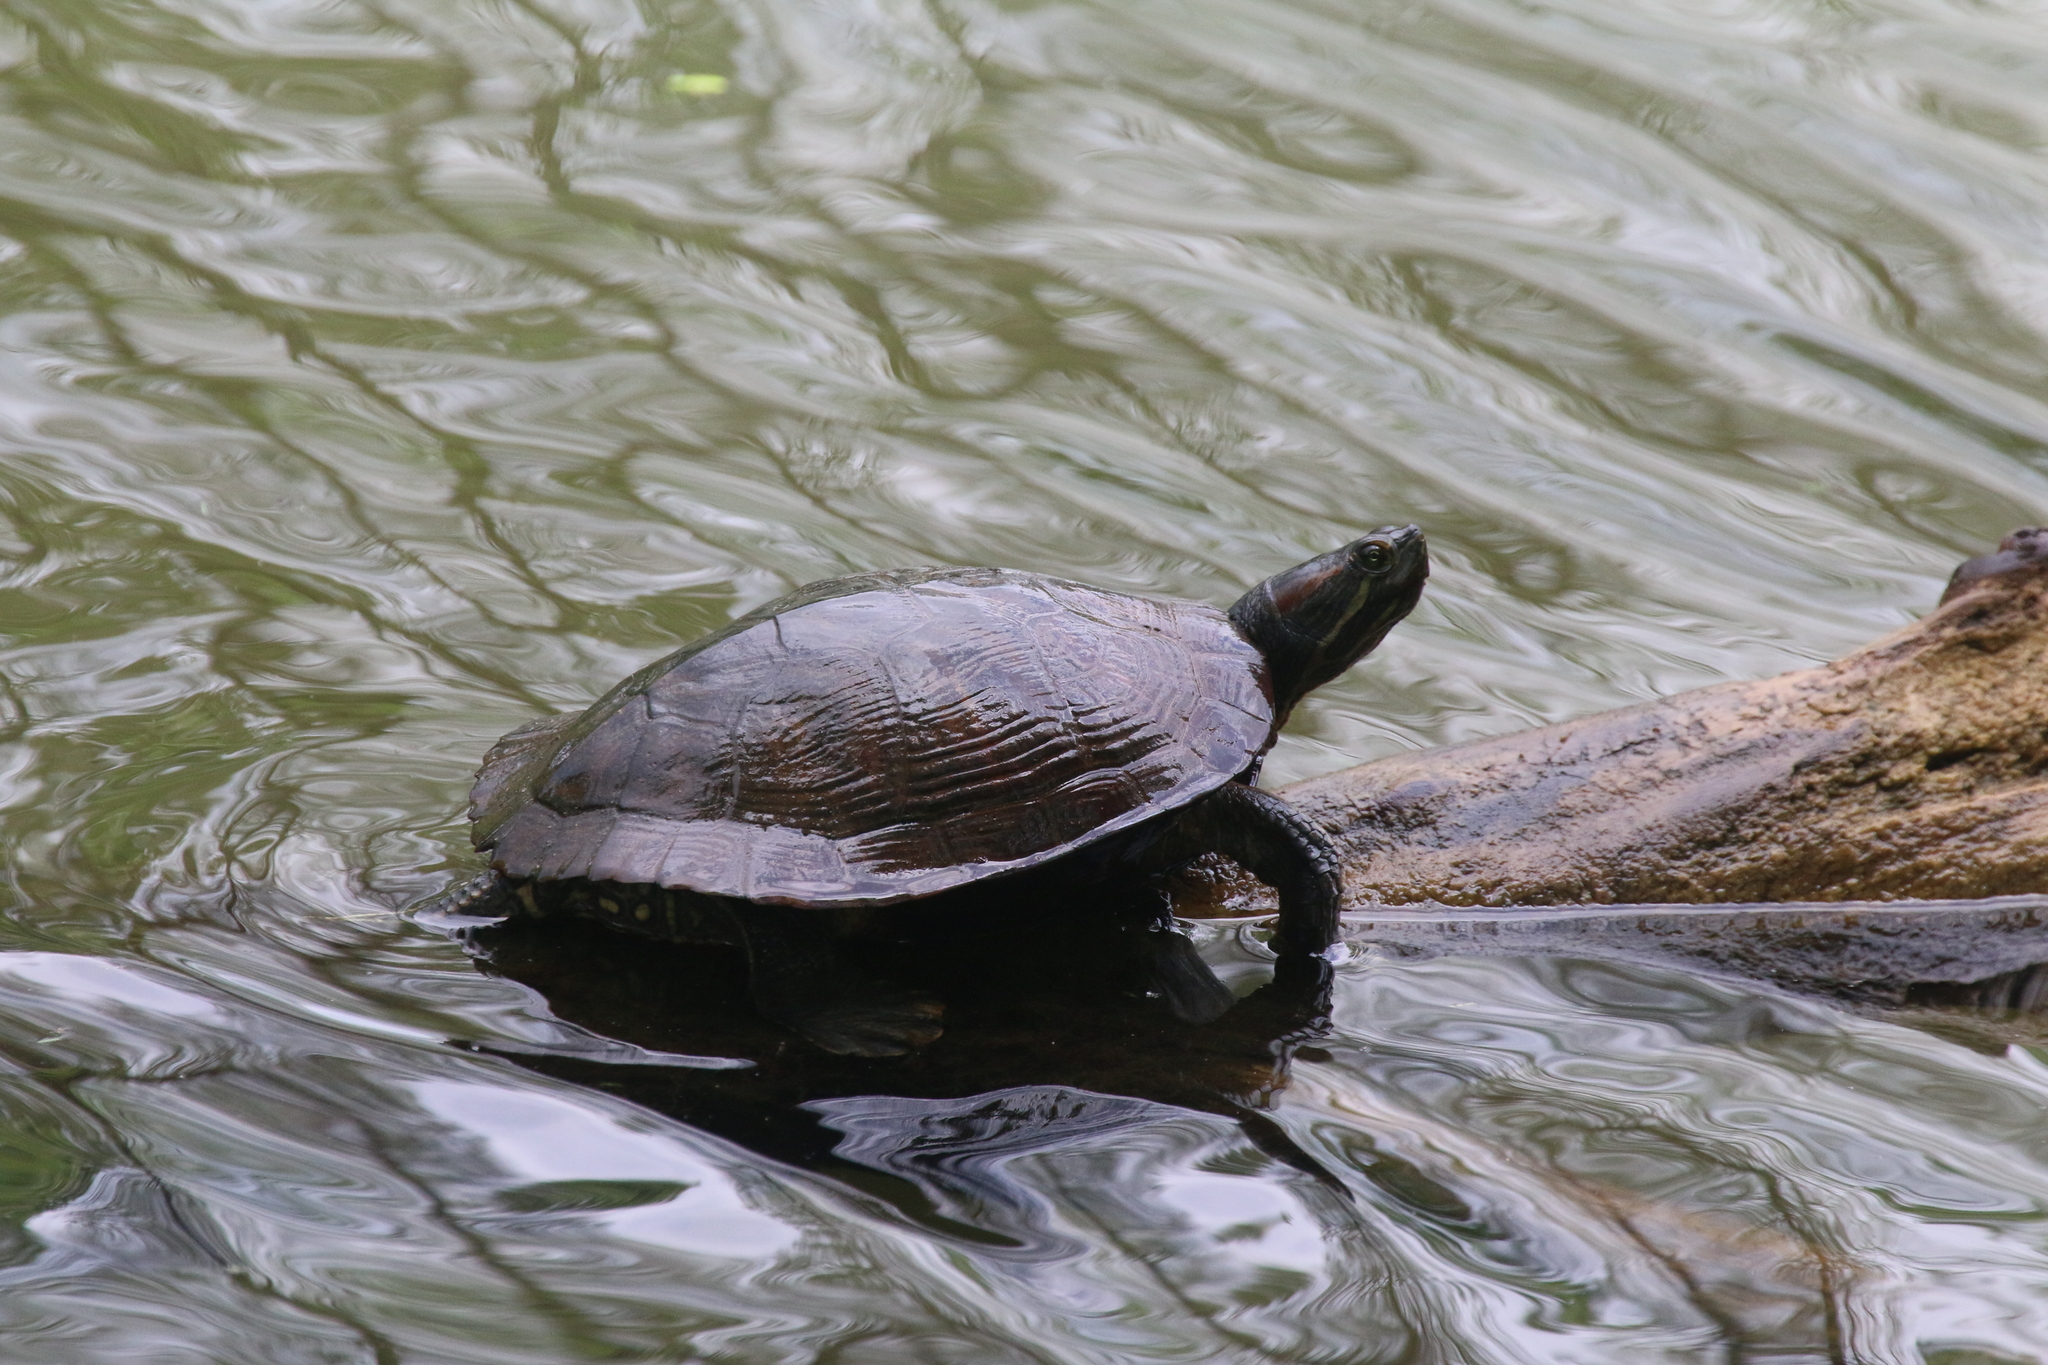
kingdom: Animalia
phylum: Chordata
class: Testudines
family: Emydidae
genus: Trachemys
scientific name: Trachemys scripta
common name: Slider
